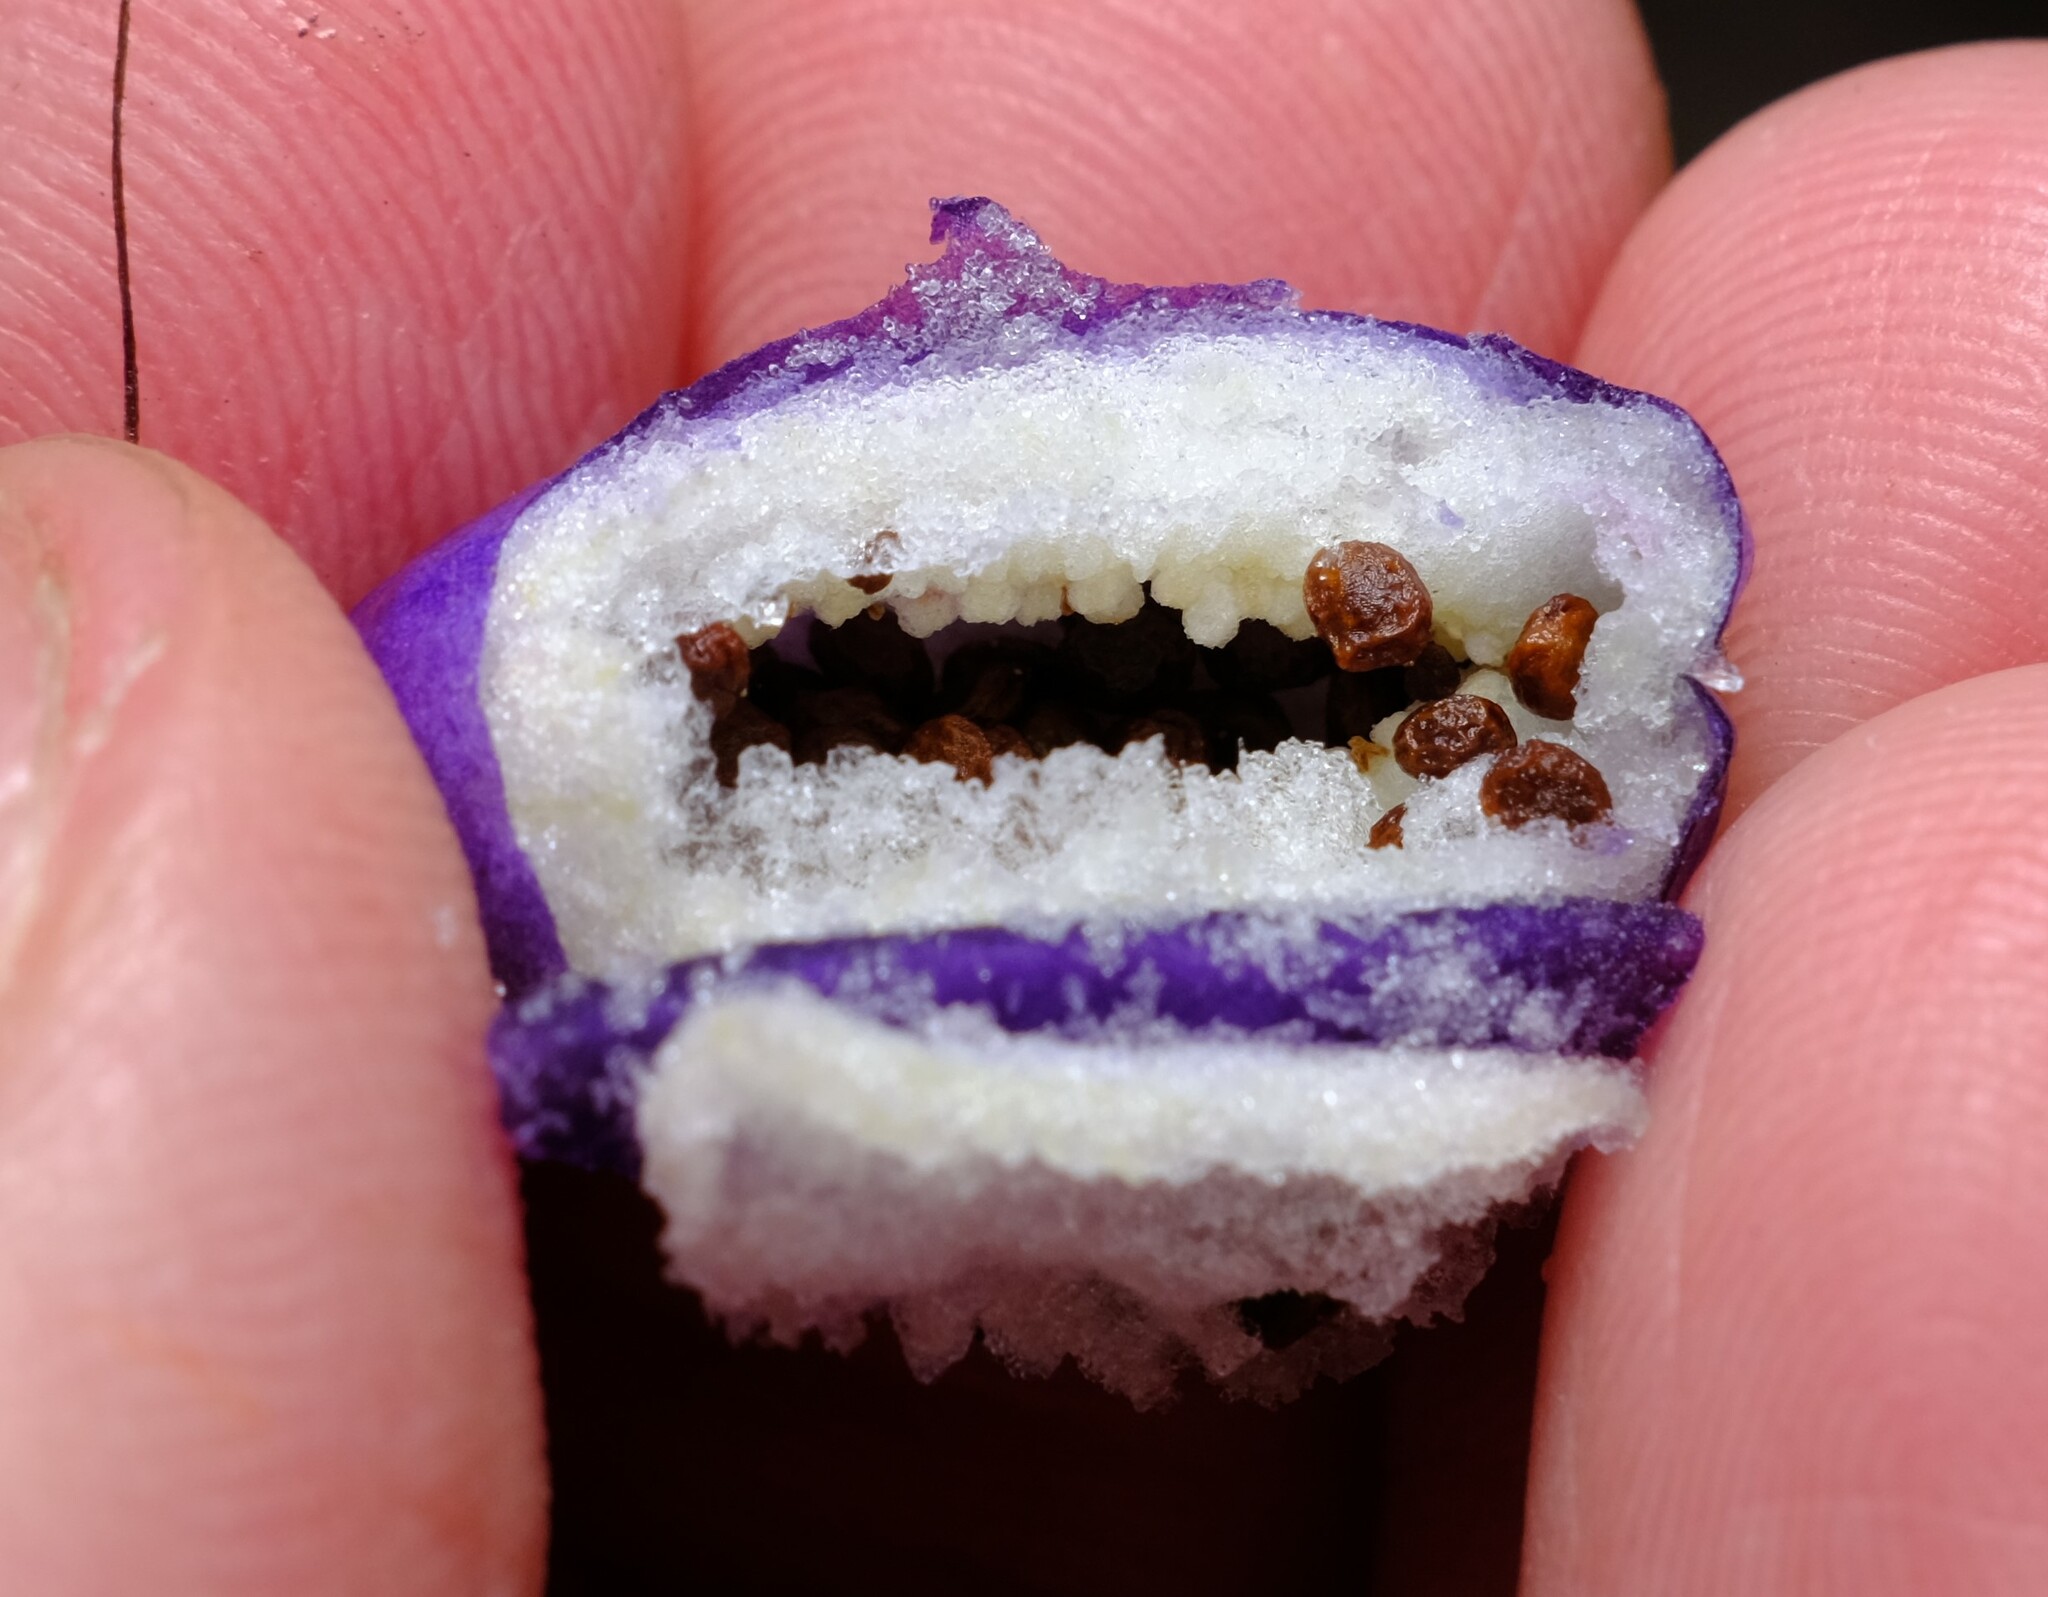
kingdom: Plantae
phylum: Tracheophyta
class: Magnoliopsida
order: Apiales
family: Pittosporaceae
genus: Billardiera
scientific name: Billardiera macrantha
